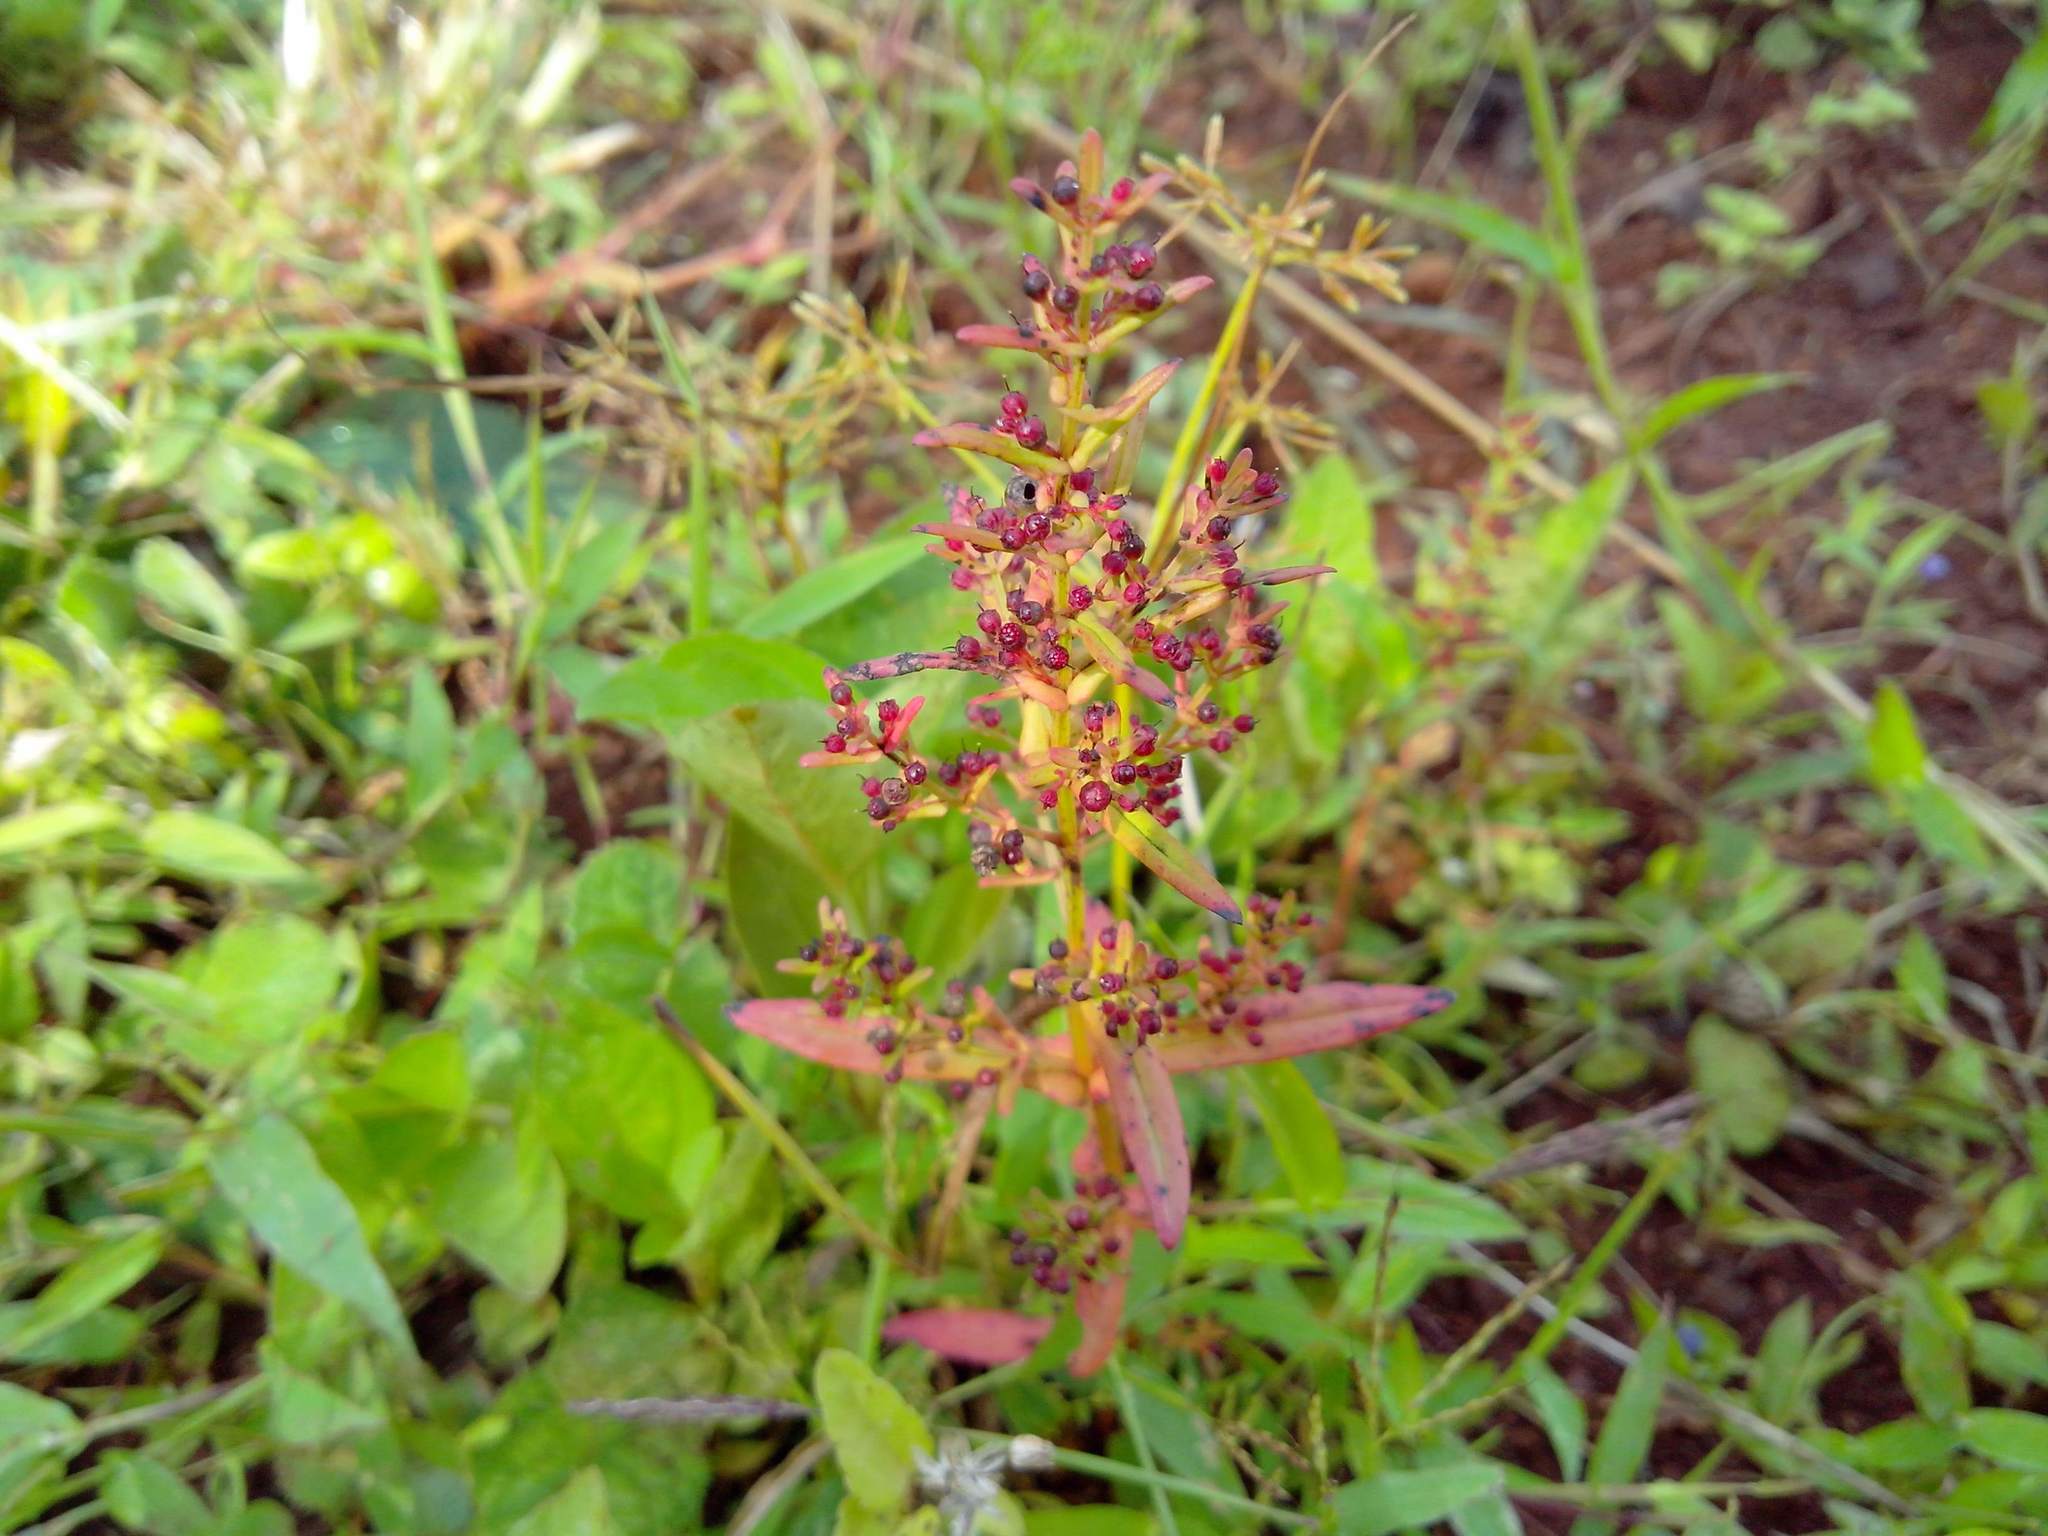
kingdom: Plantae
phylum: Tracheophyta
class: Magnoliopsida
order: Myrtales
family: Lythraceae
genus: Rotala
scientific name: Rotala mexicana
